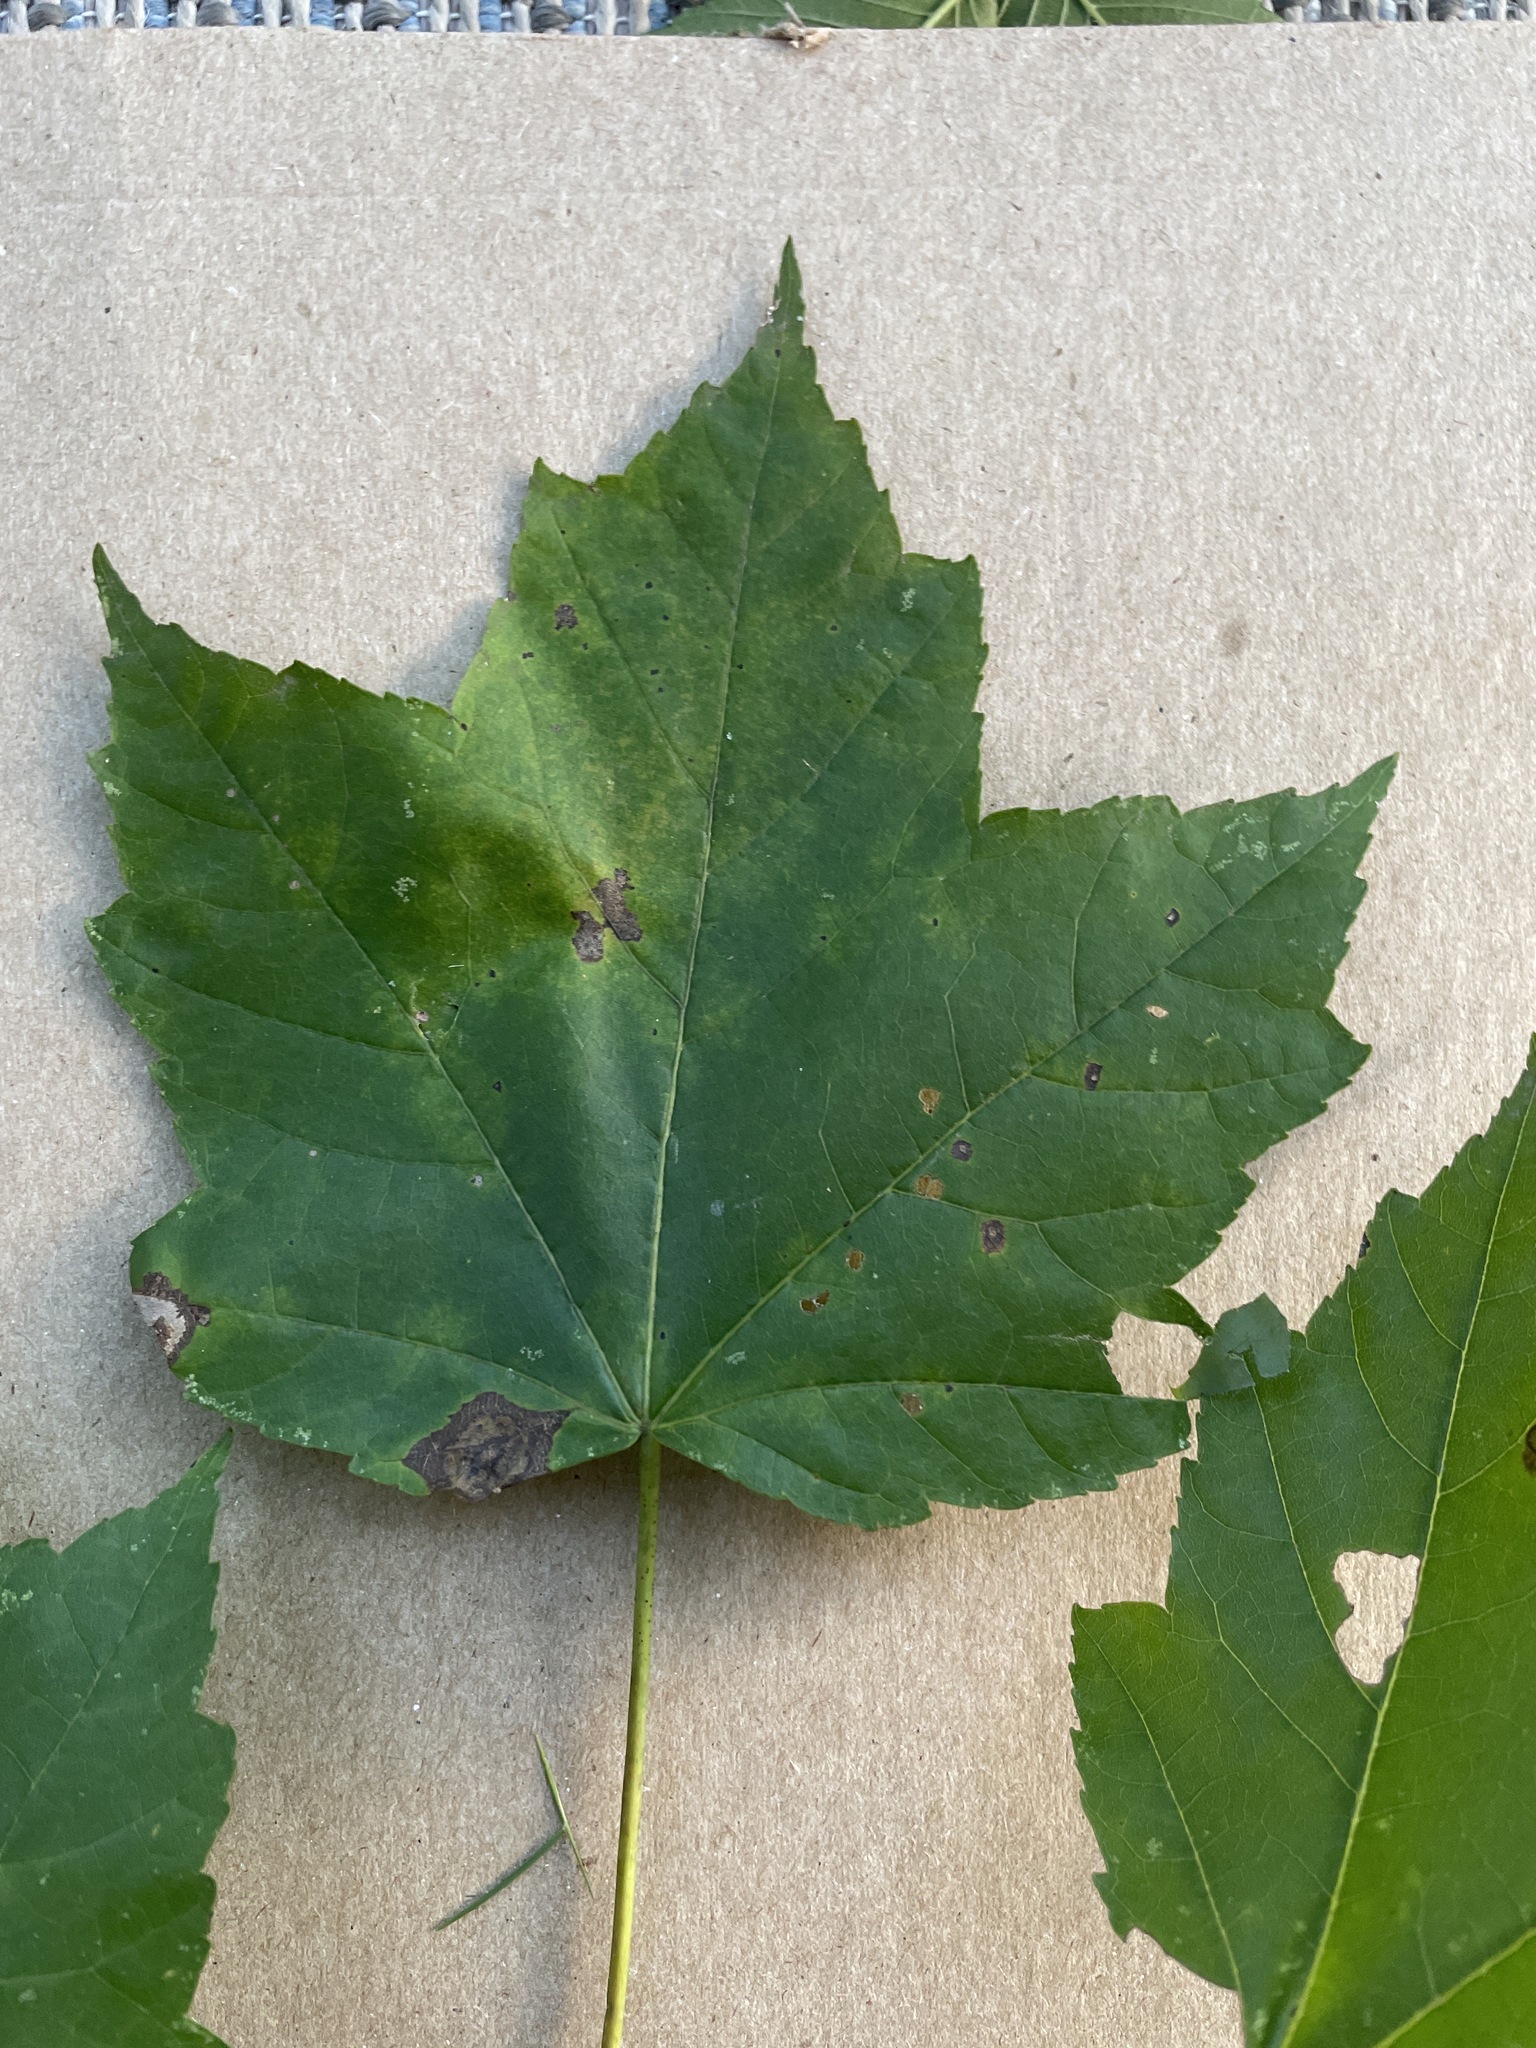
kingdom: Plantae
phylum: Tracheophyta
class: Magnoliopsida
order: Sapindales
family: Sapindaceae
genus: Acer
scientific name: Acer rubrum
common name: Red maple
